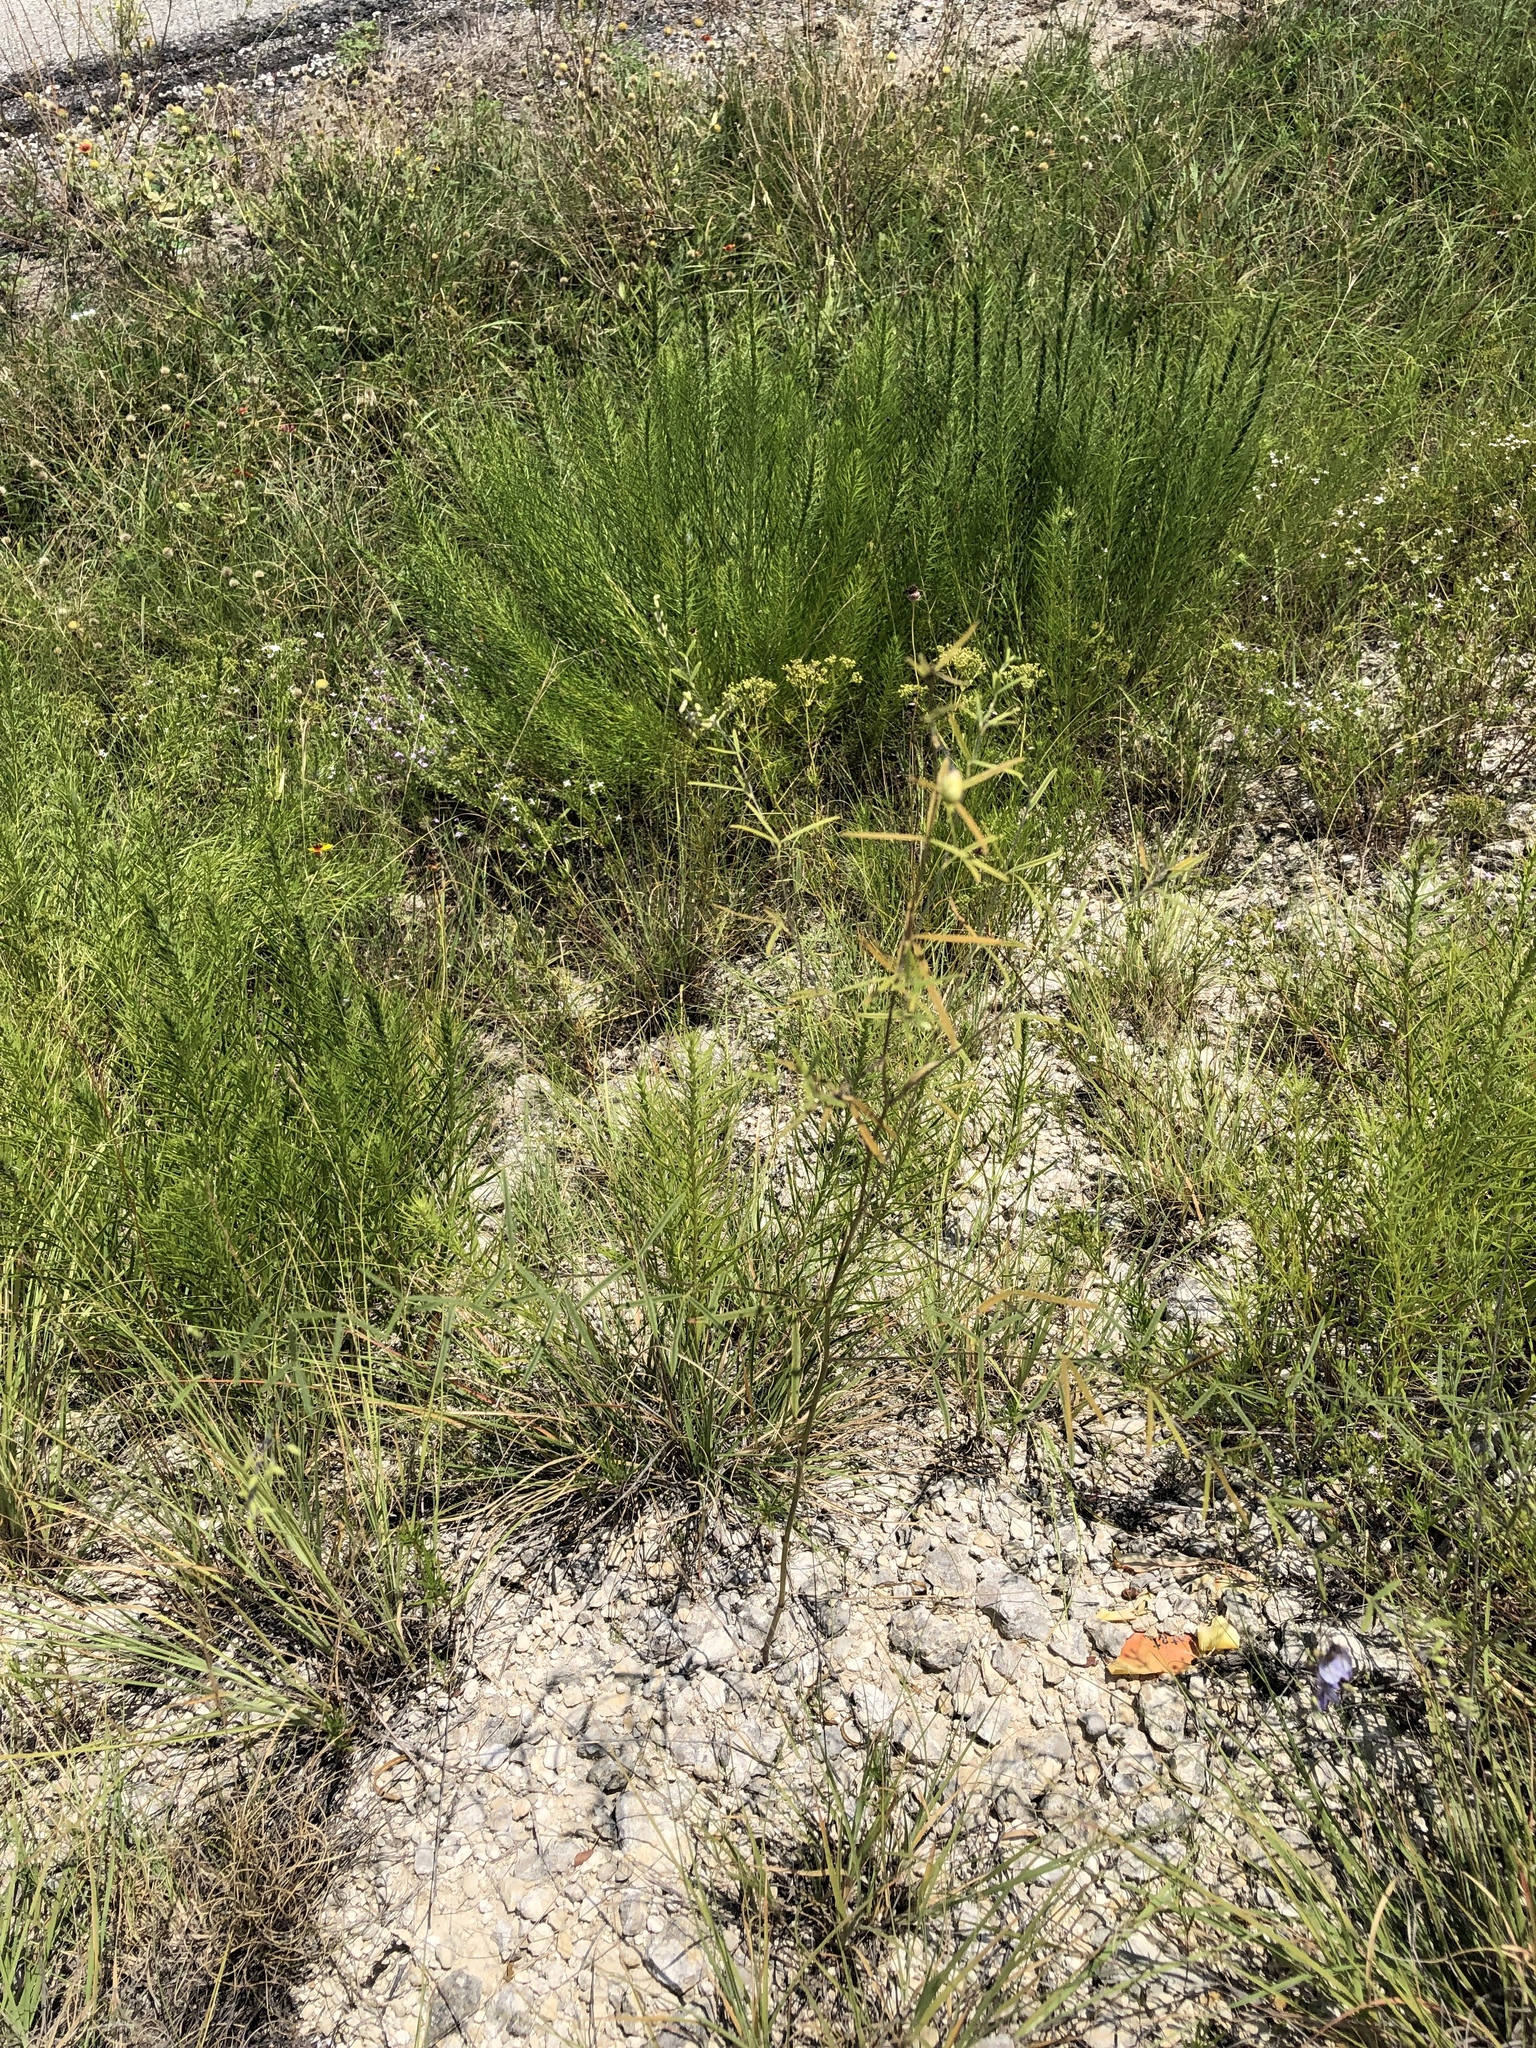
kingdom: Plantae
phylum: Tracheophyta
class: Magnoliopsida
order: Fabales
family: Fabaceae
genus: Pediomelum
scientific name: Pediomelum linearifolium
